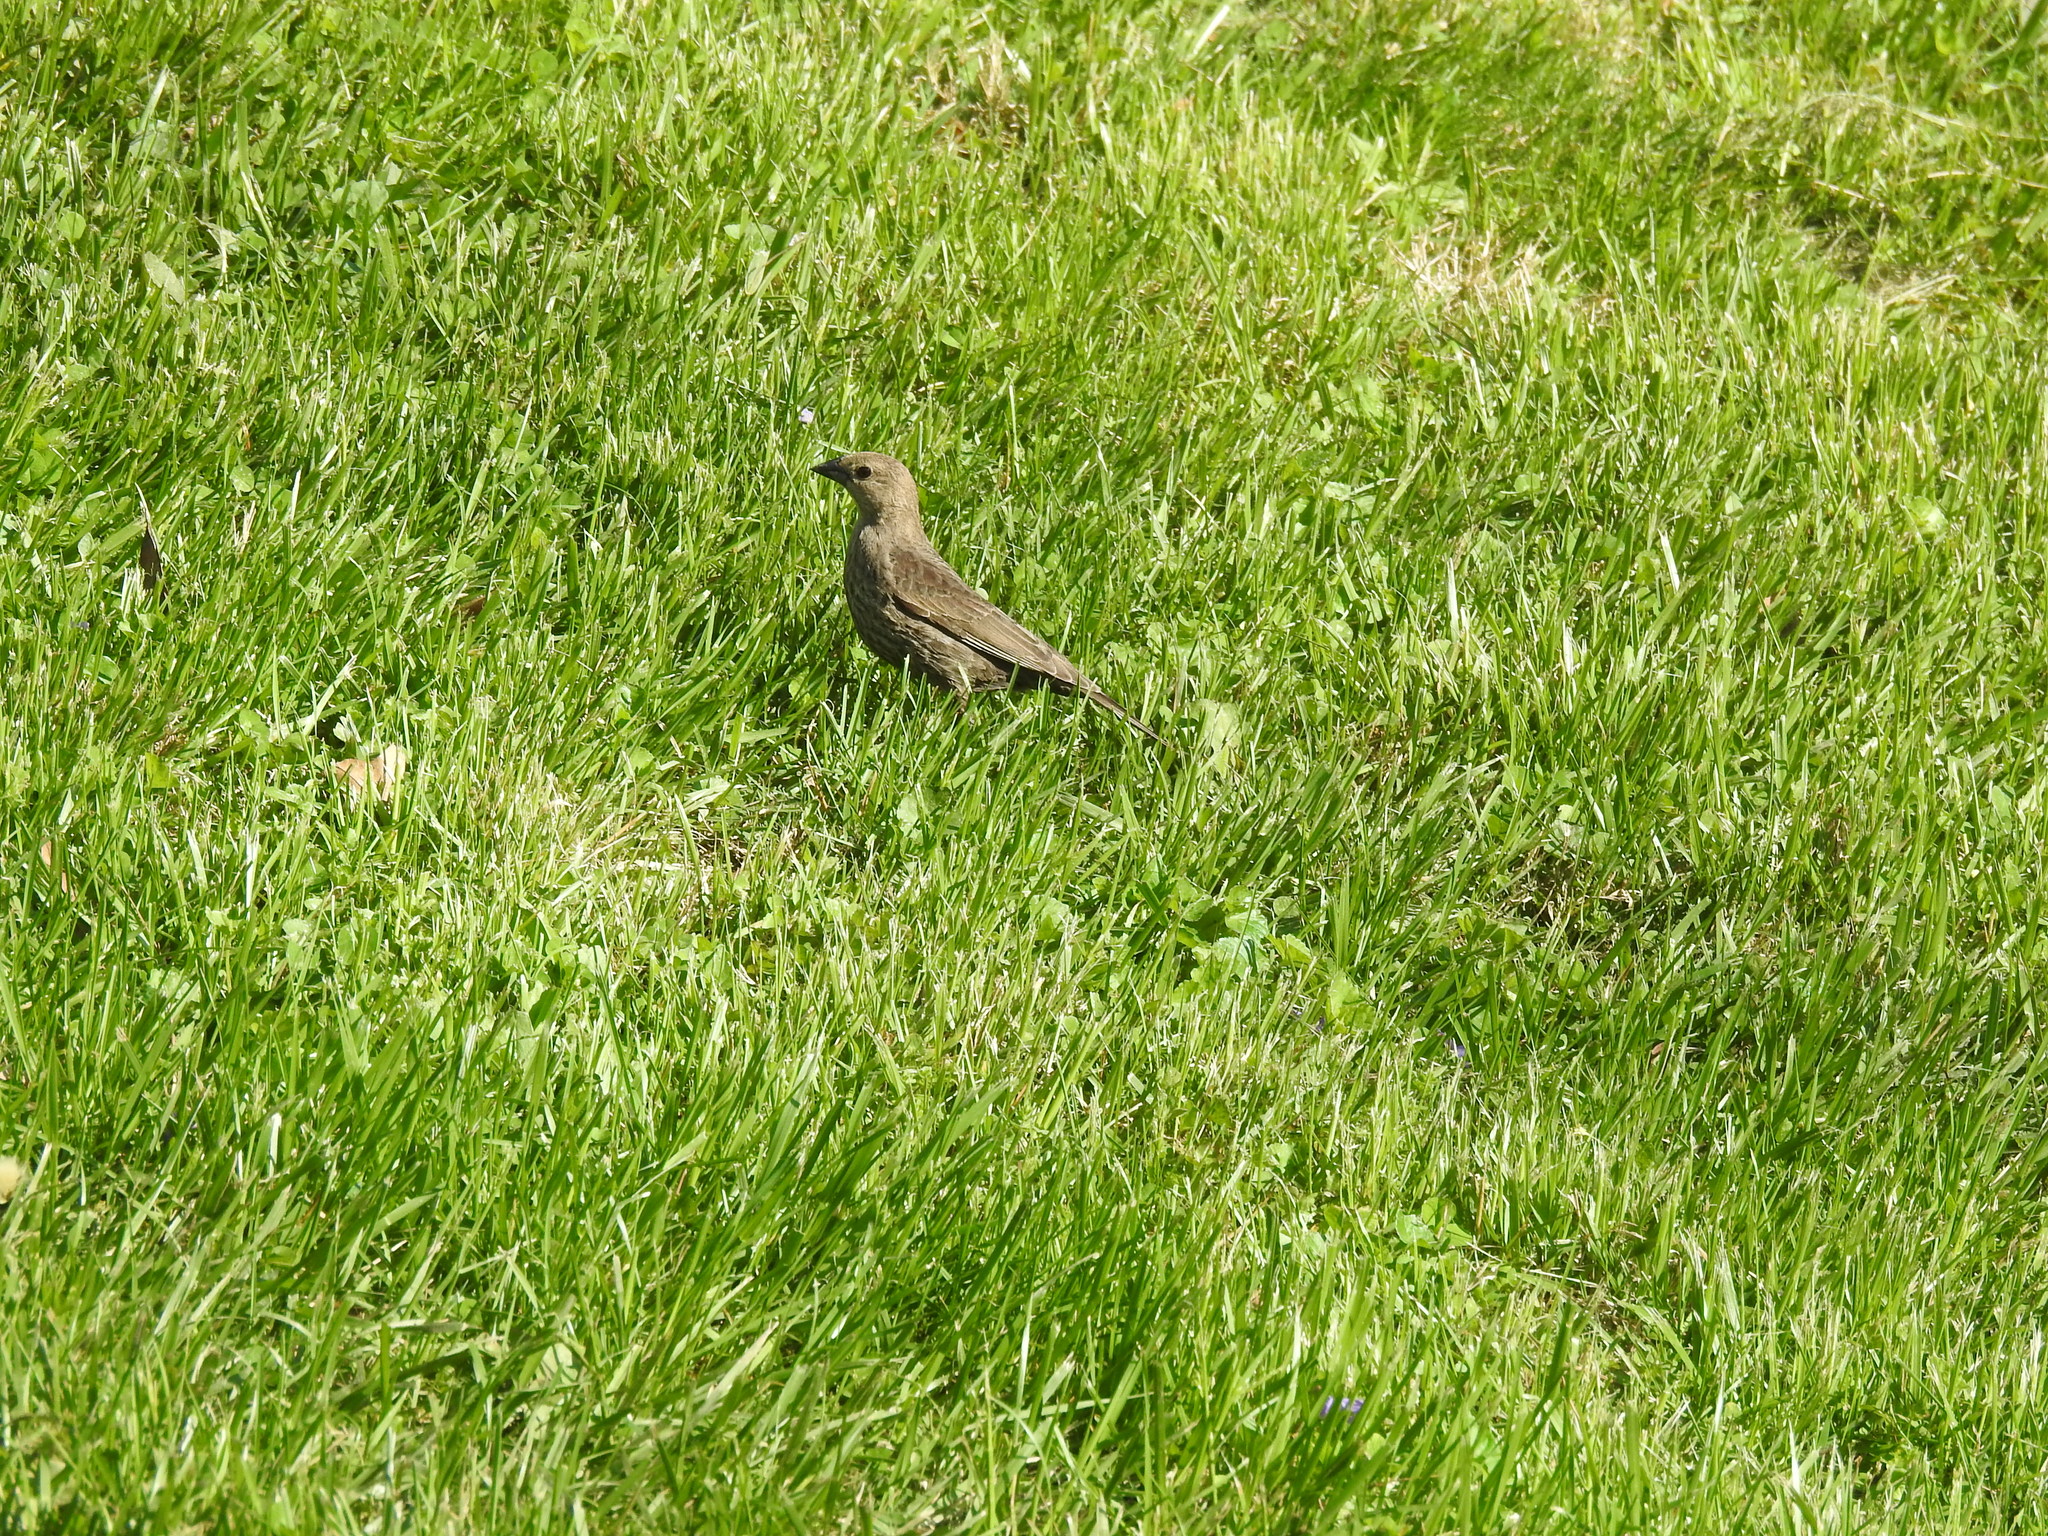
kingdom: Animalia
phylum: Chordata
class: Aves
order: Passeriformes
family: Icteridae
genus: Molothrus
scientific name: Molothrus ater
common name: Brown-headed cowbird
